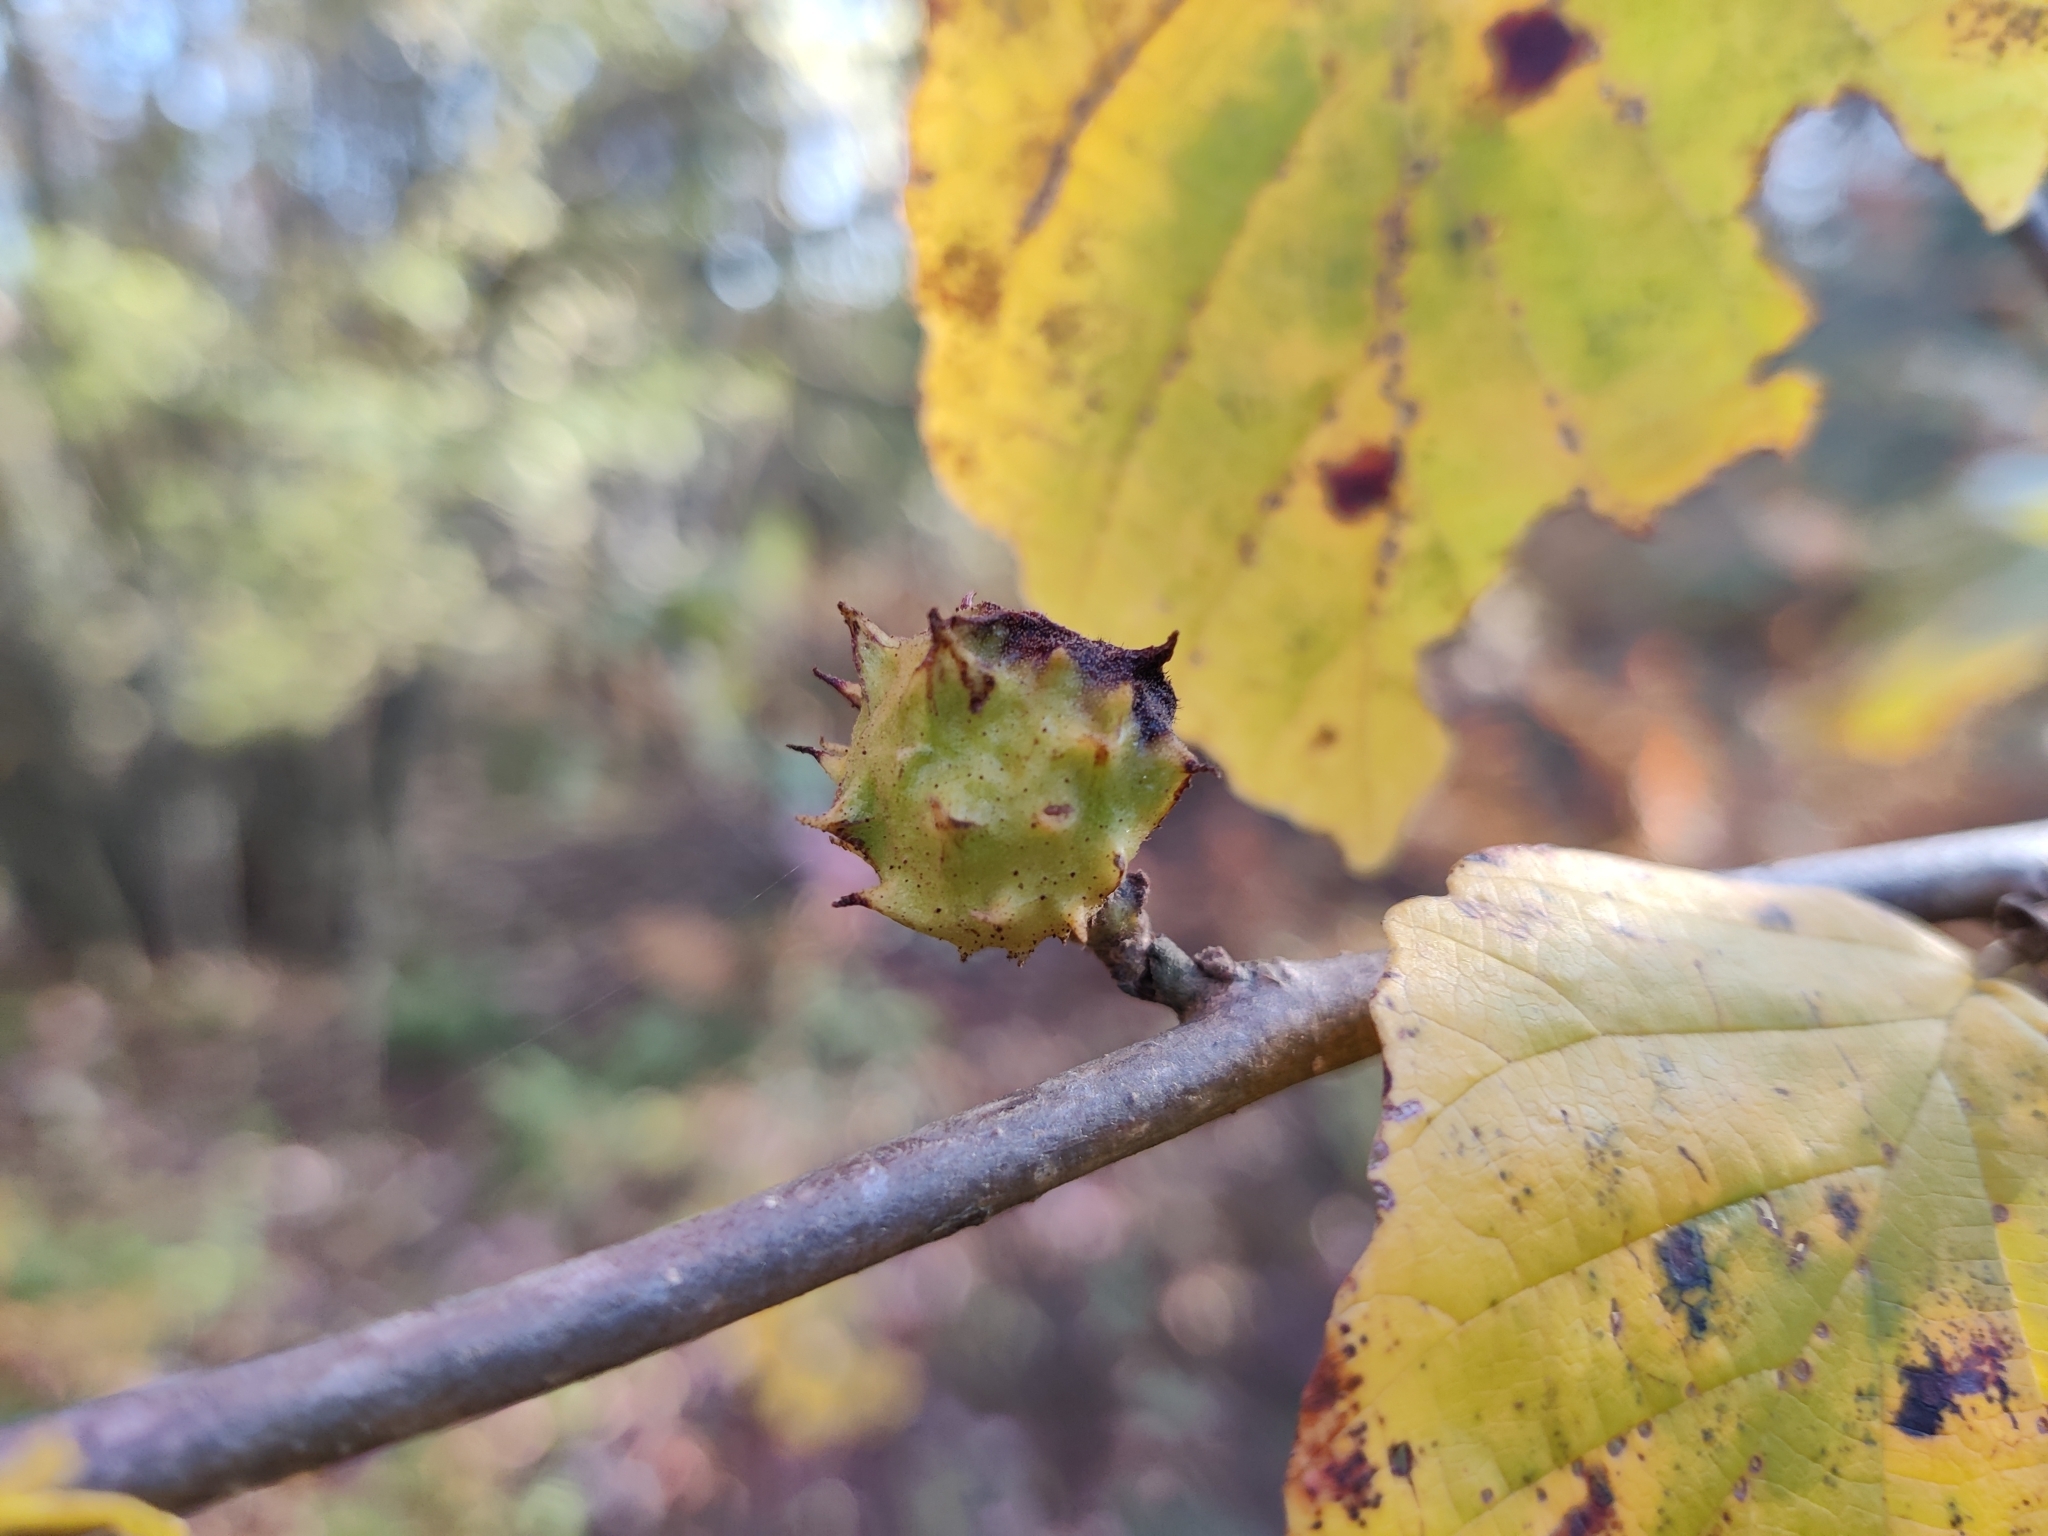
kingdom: Animalia
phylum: Arthropoda
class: Insecta
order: Hemiptera
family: Aphididae
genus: Hamamelistes
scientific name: Hamamelistes spinosus
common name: Witch hazel gall aphid
